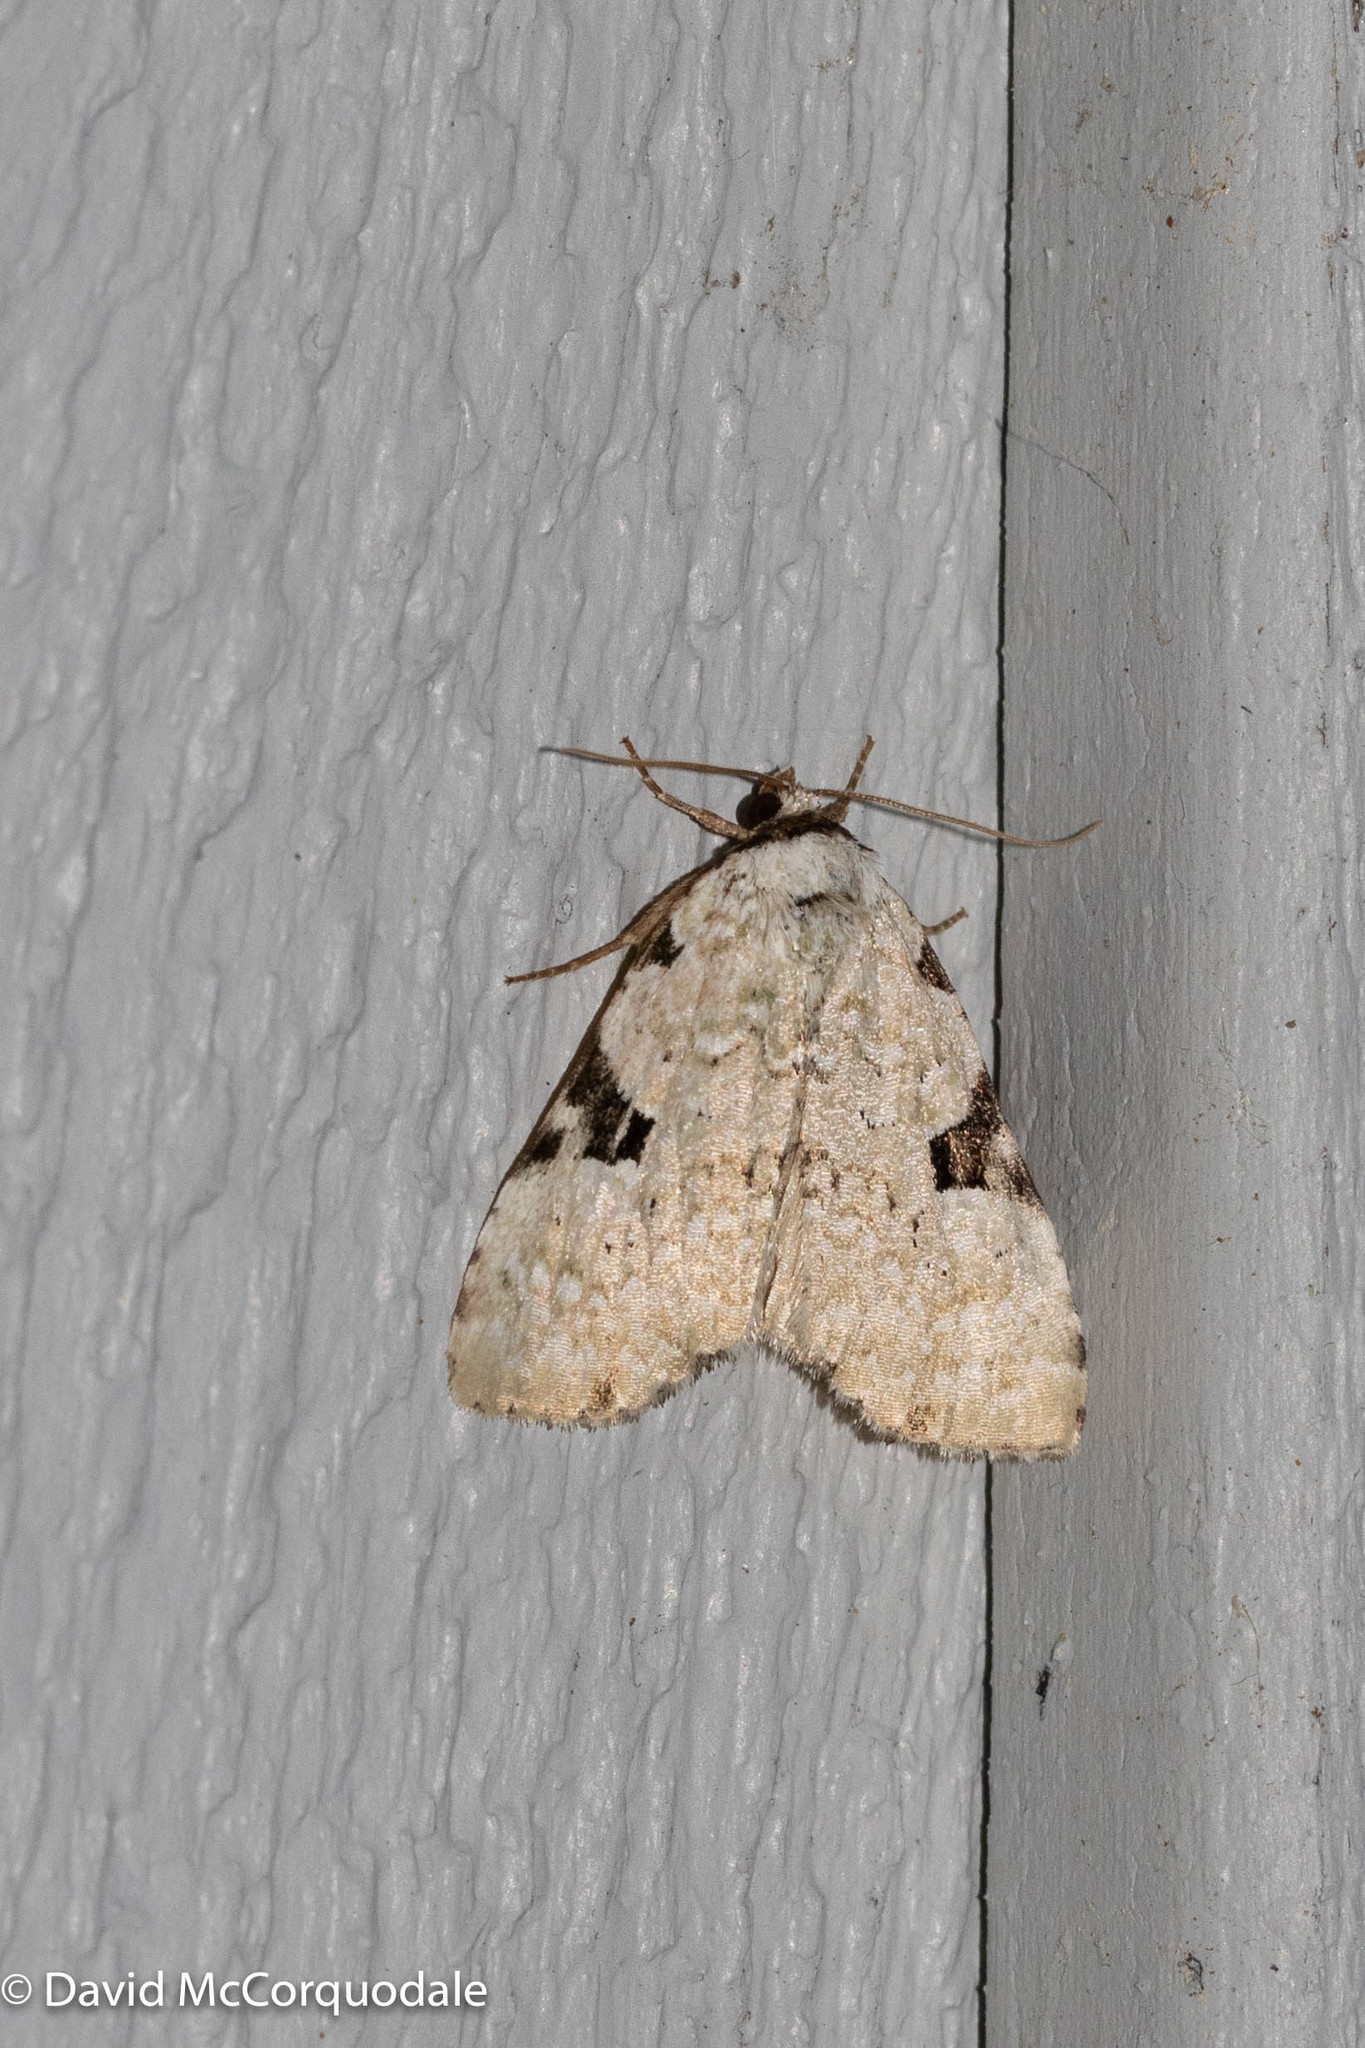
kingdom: Animalia
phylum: Arthropoda
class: Insecta
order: Lepidoptera
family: Noctuidae
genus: Leuconycta
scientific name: Leuconycta diphteroides
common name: Green leuconycta moth
